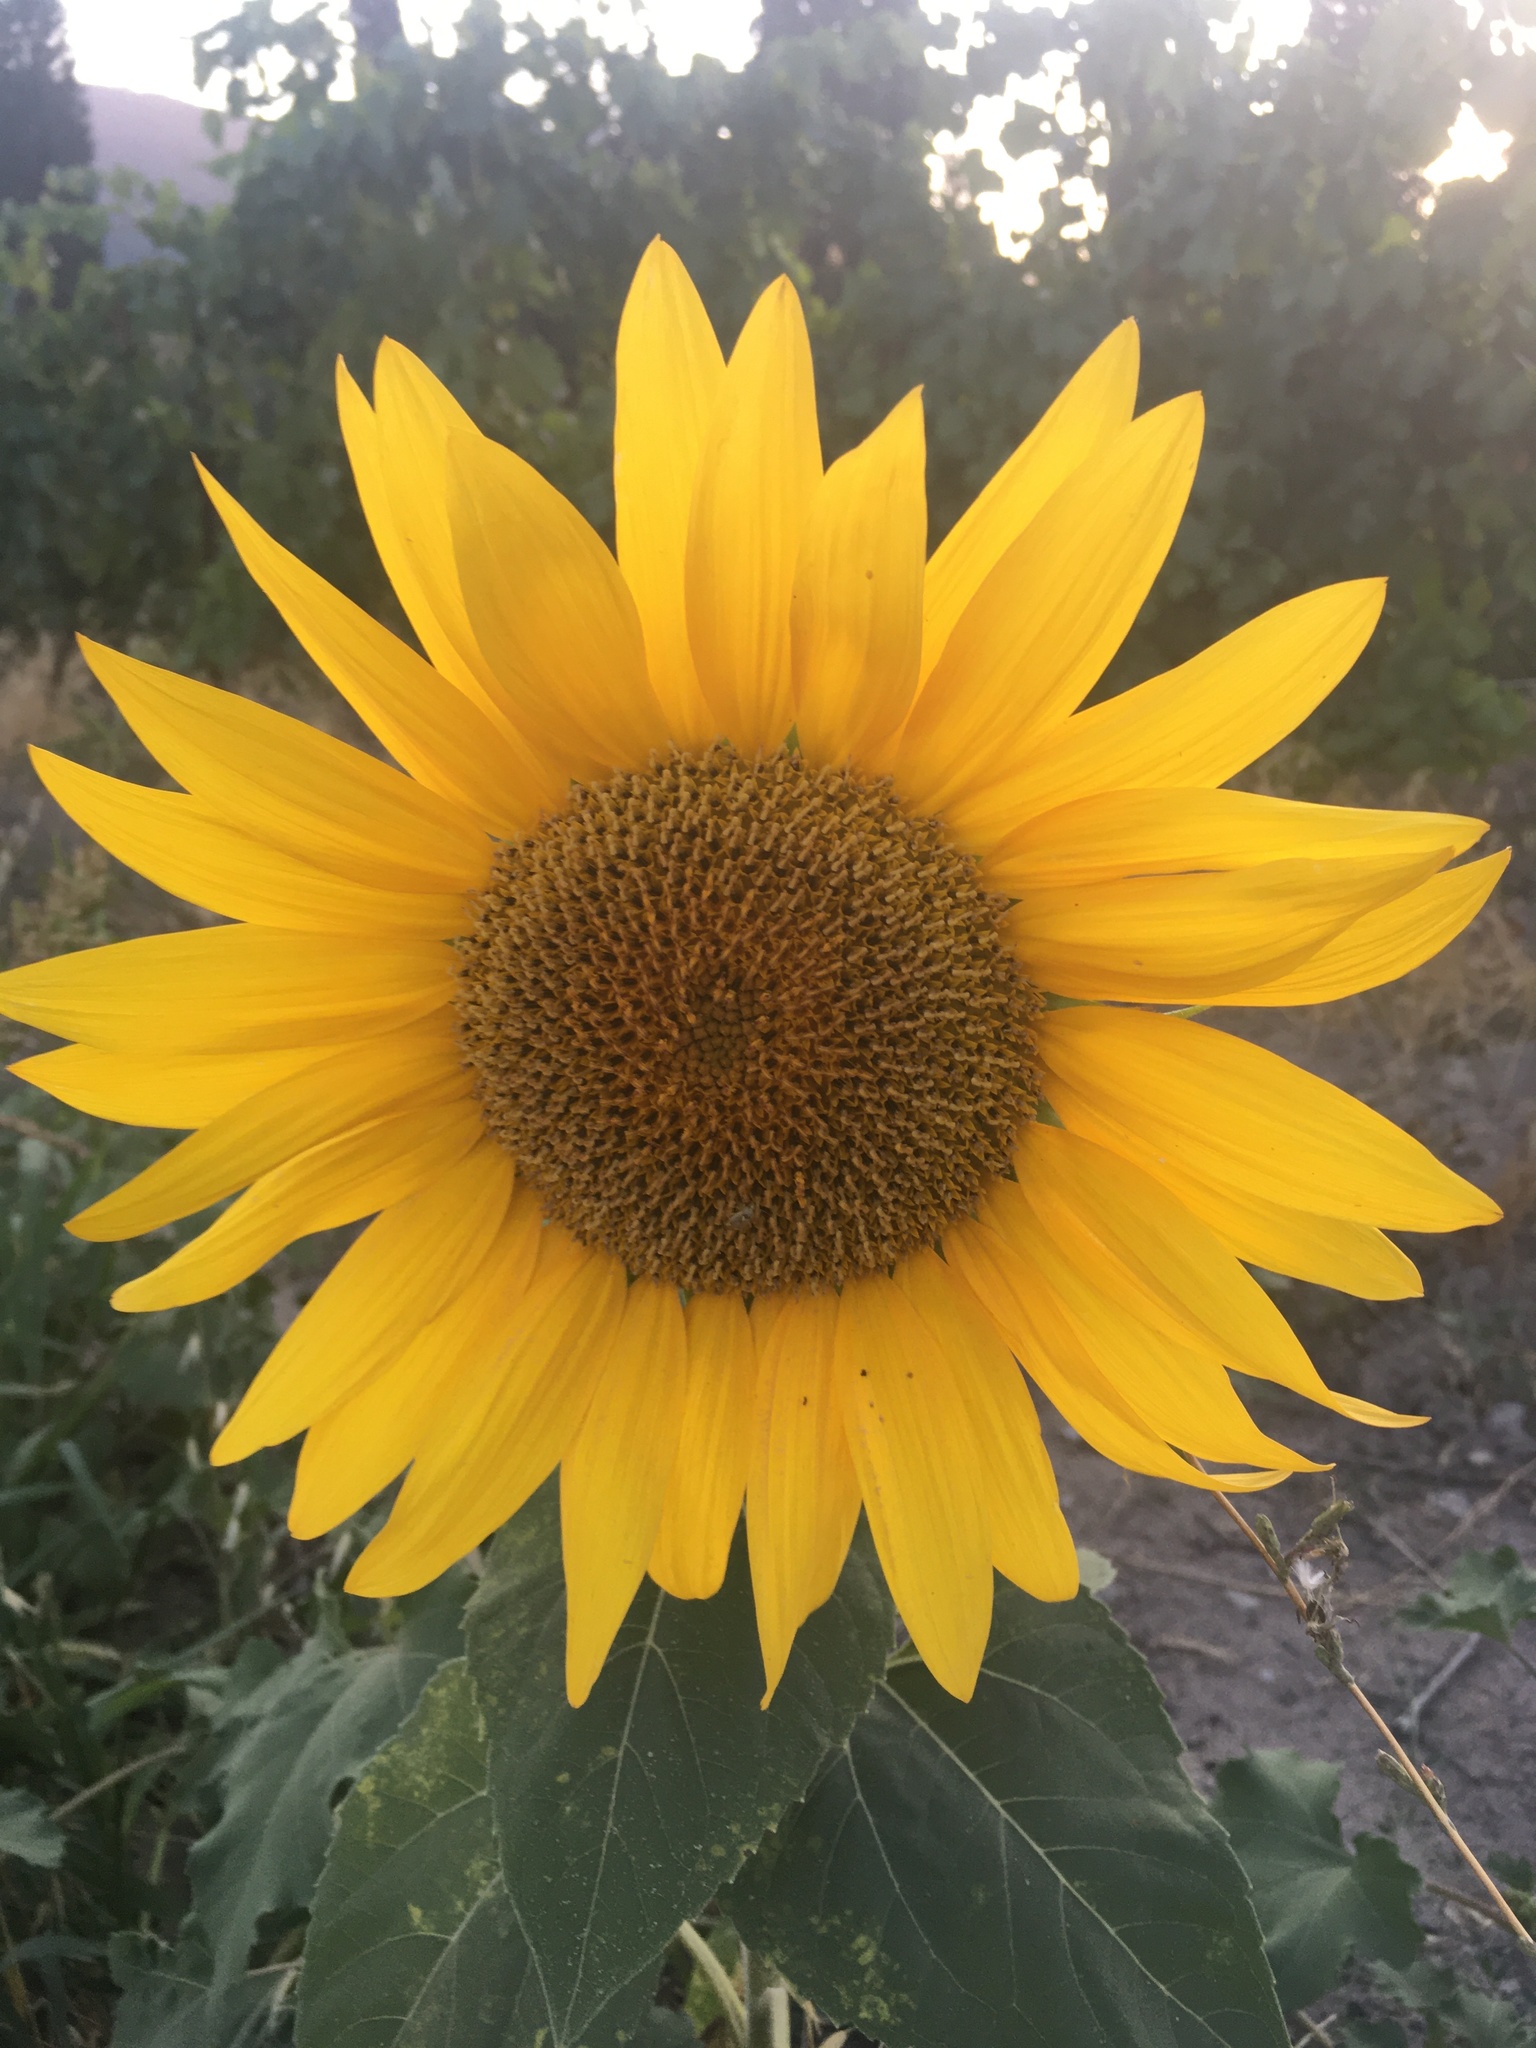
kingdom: Plantae
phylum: Tracheophyta
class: Magnoliopsida
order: Asterales
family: Asteraceae
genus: Helianthus
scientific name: Helianthus annuus
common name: Sunflower
